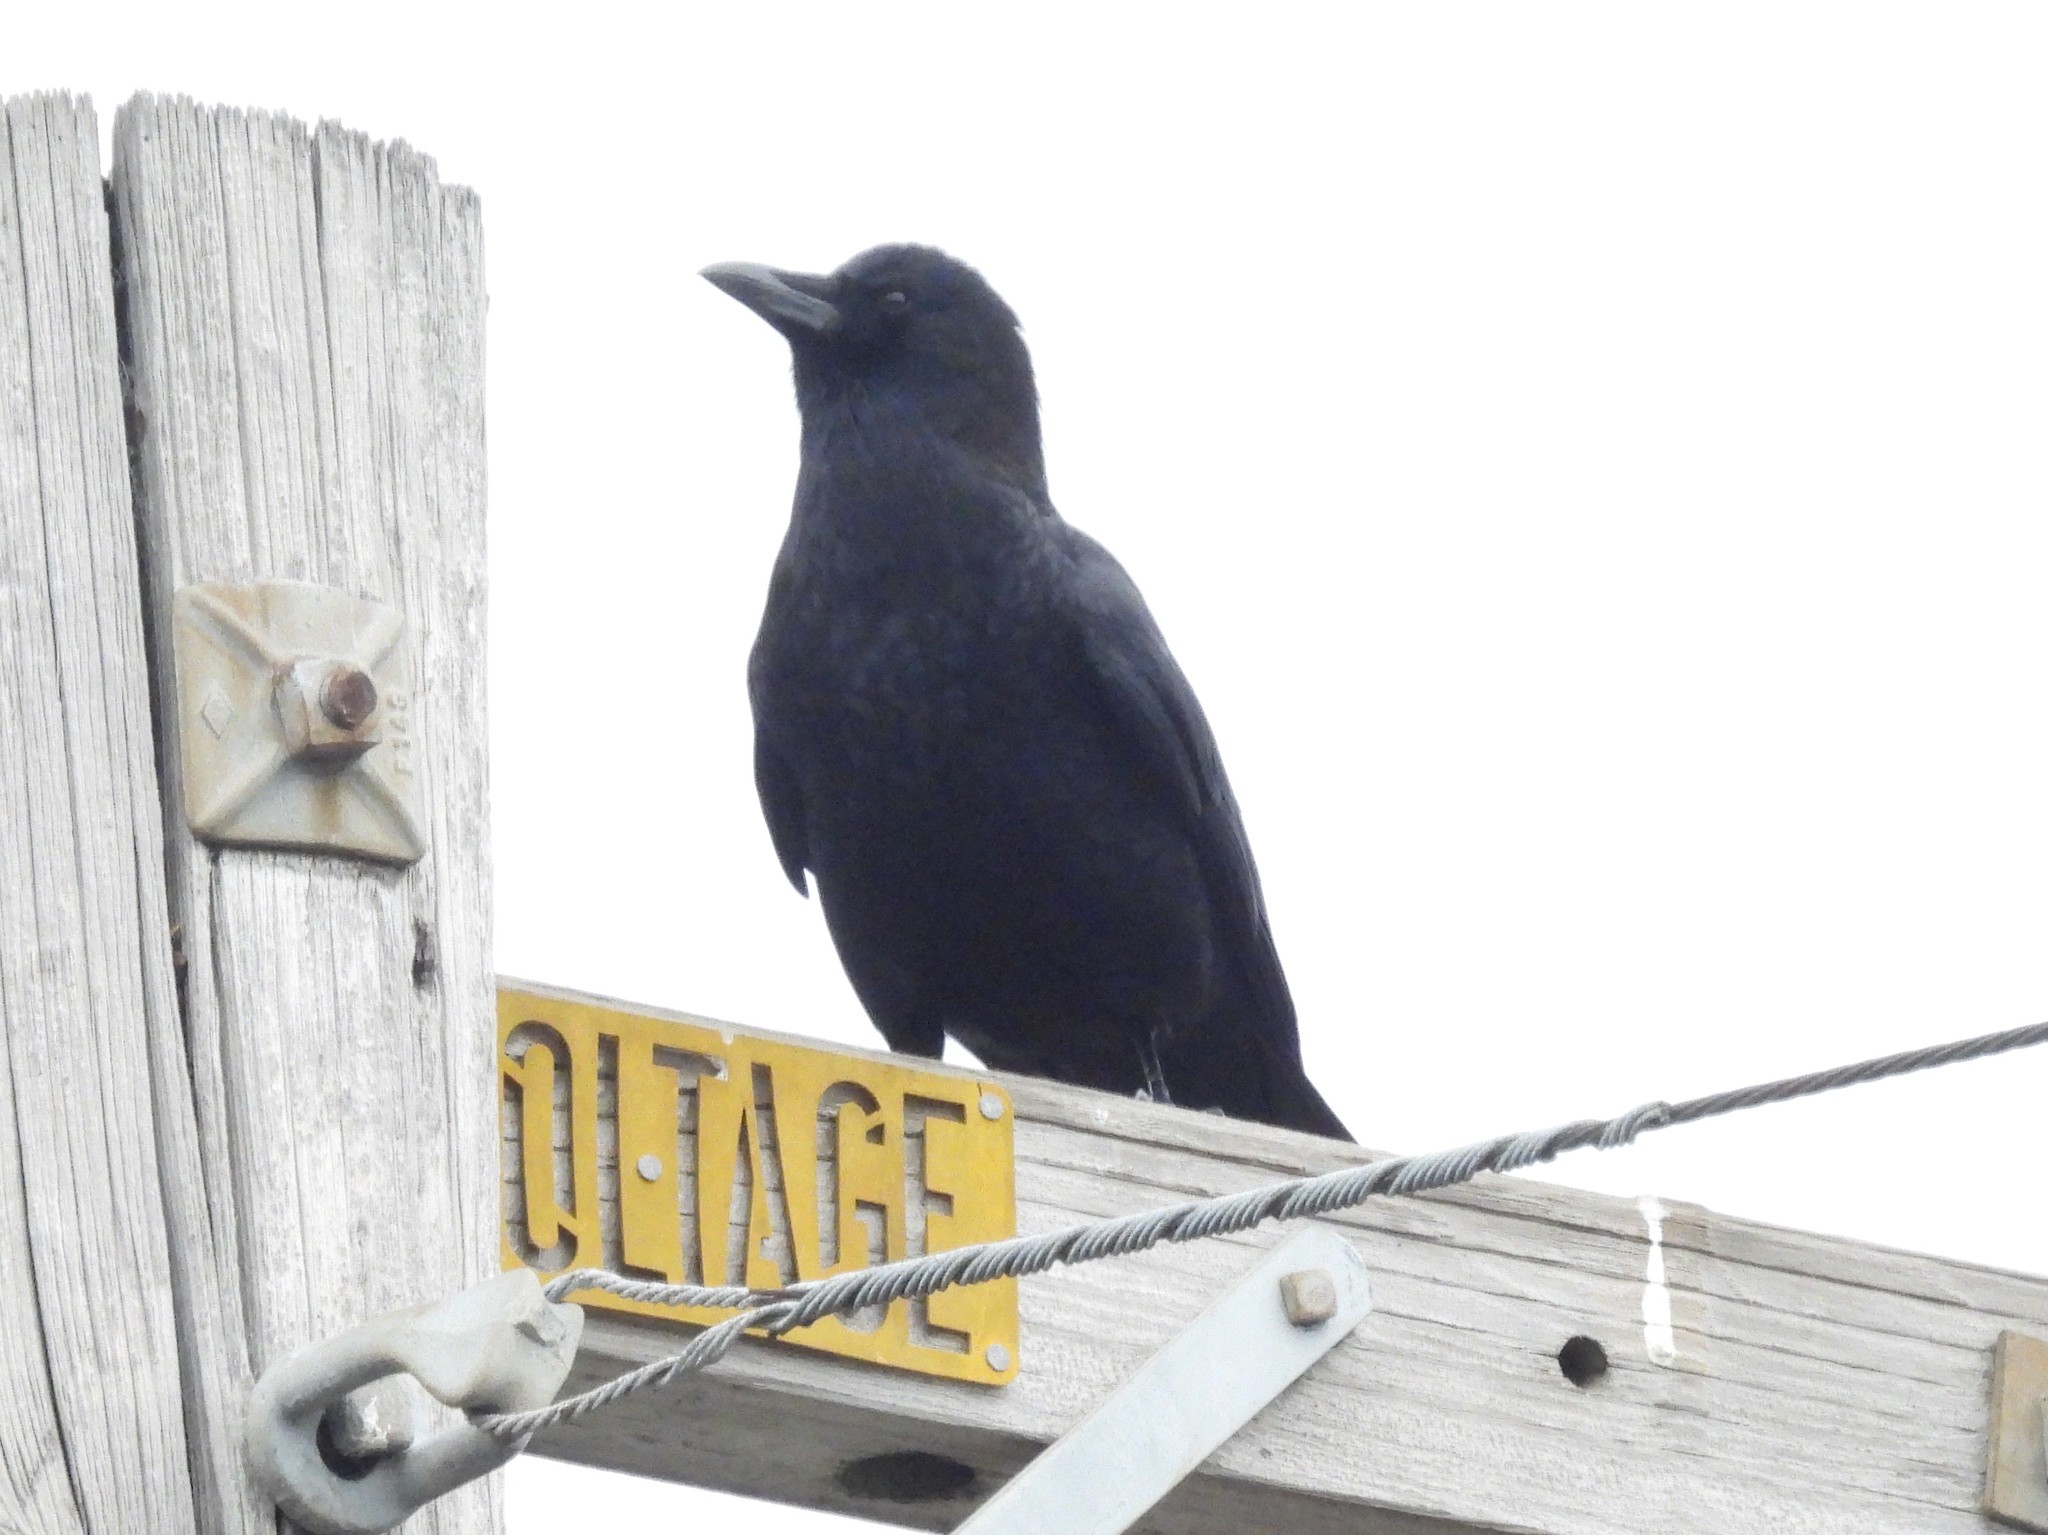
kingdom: Animalia
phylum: Chordata
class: Aves
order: Passeriformes
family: Corvidae
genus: Corvus
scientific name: Corvus brachyrhynchos
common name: American crow
